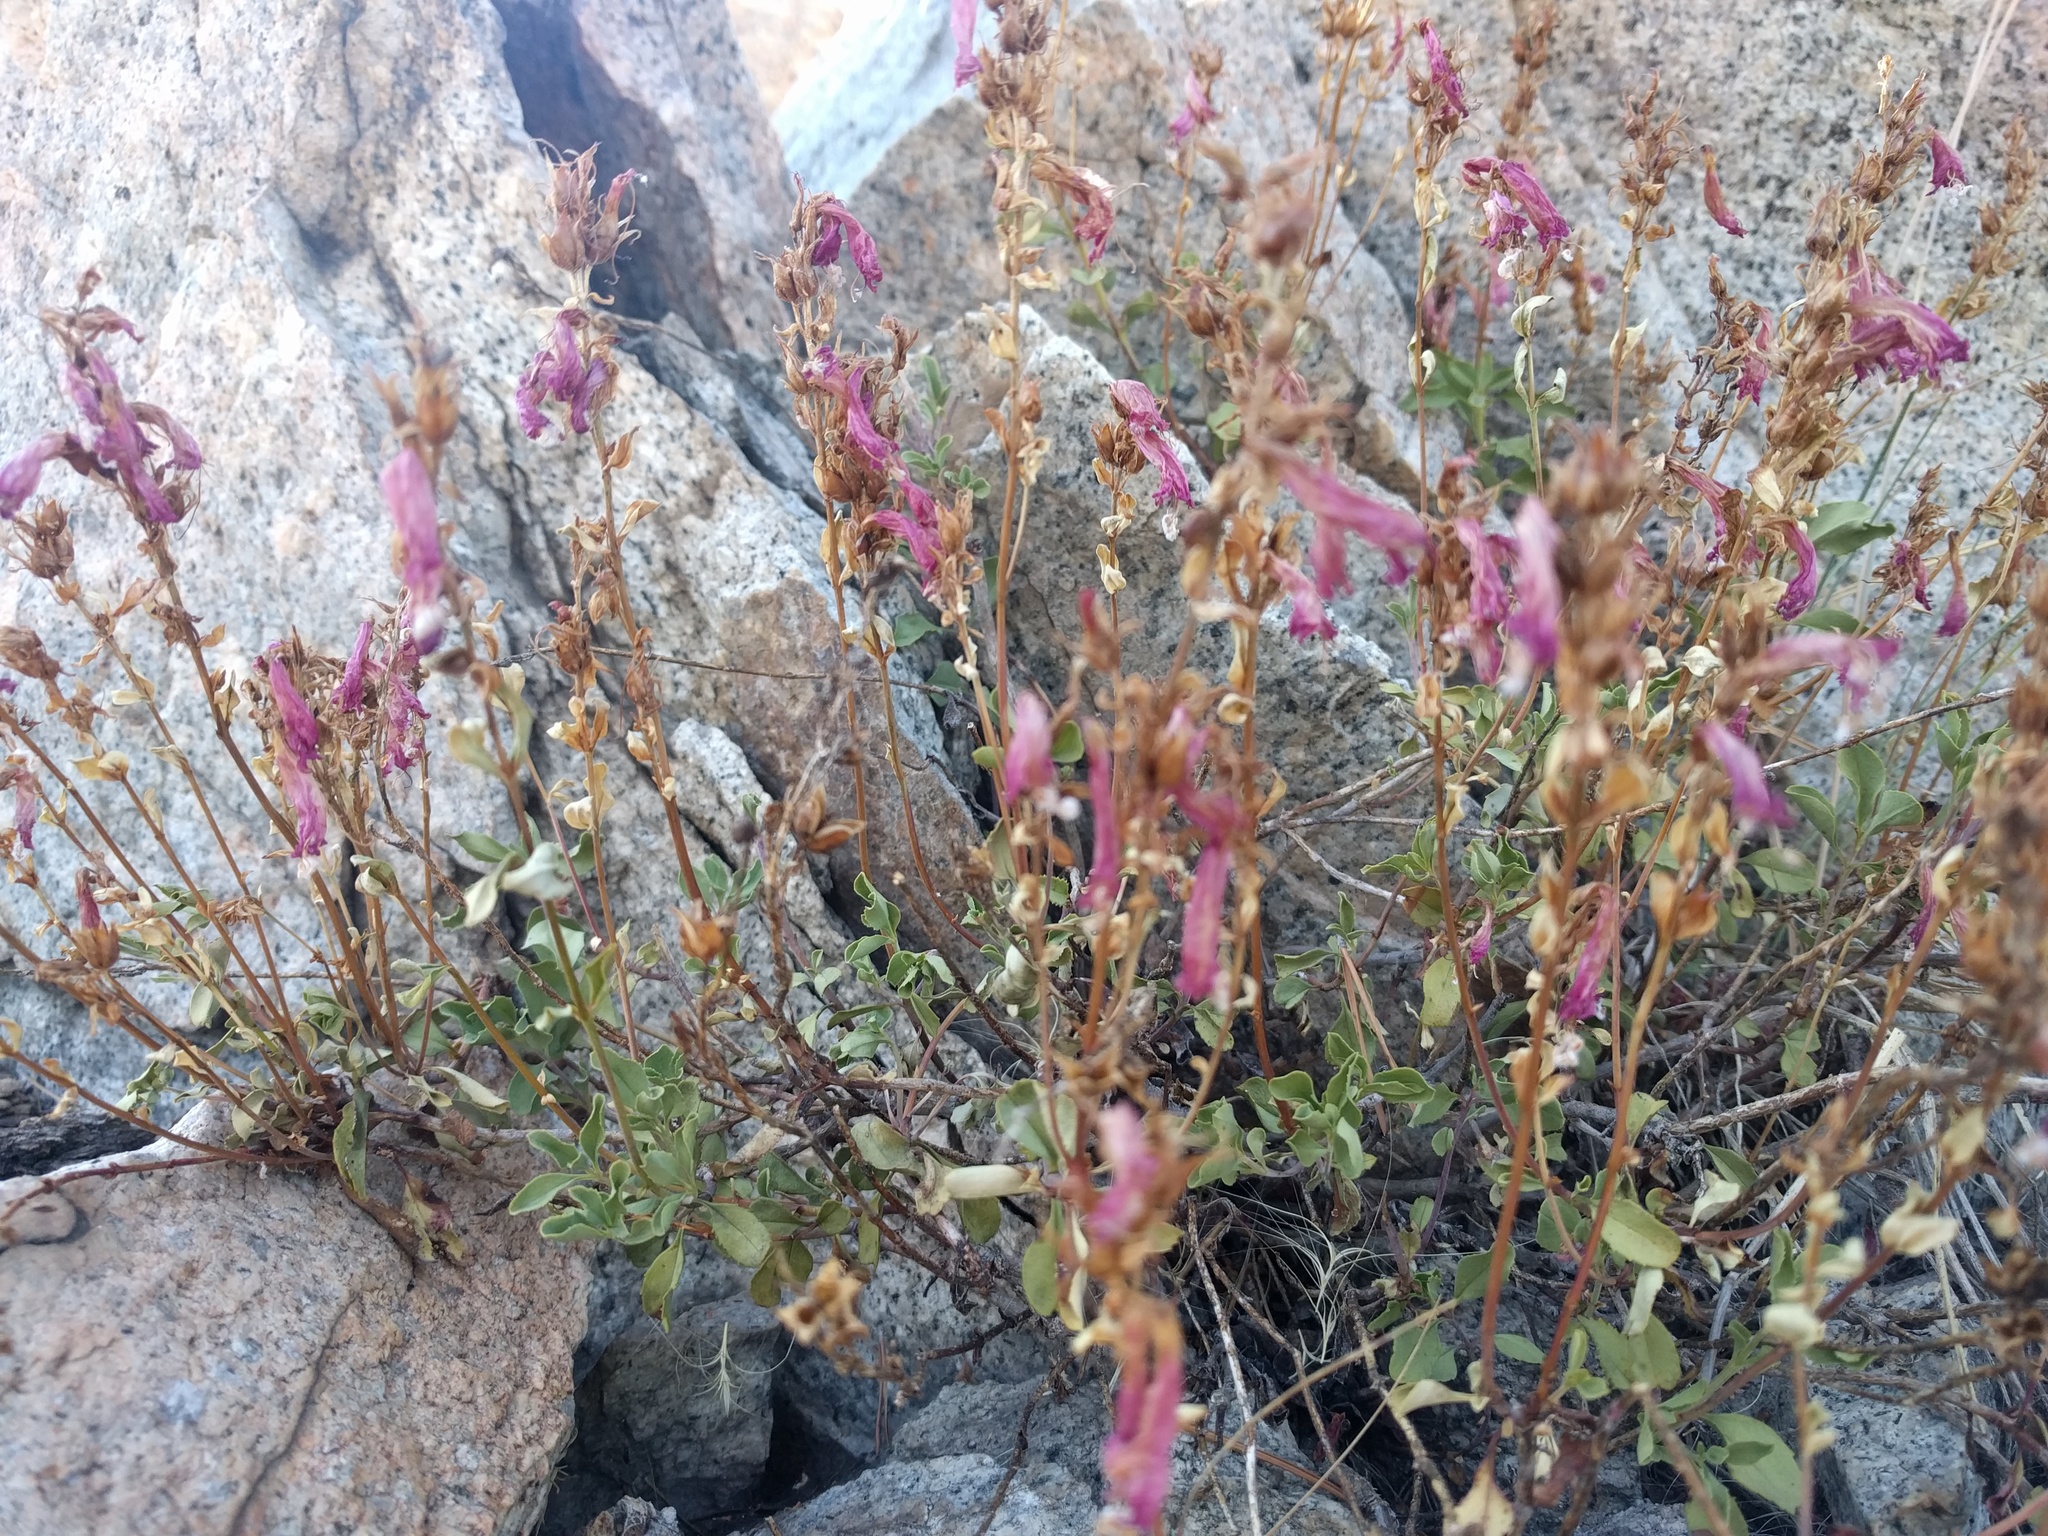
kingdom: Plantae
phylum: Tracheophyta
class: Magnoliopsida
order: Lamiales
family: Plantaginaceae
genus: Penstemon
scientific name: Penstemon newberryi
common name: Mountain-pride
